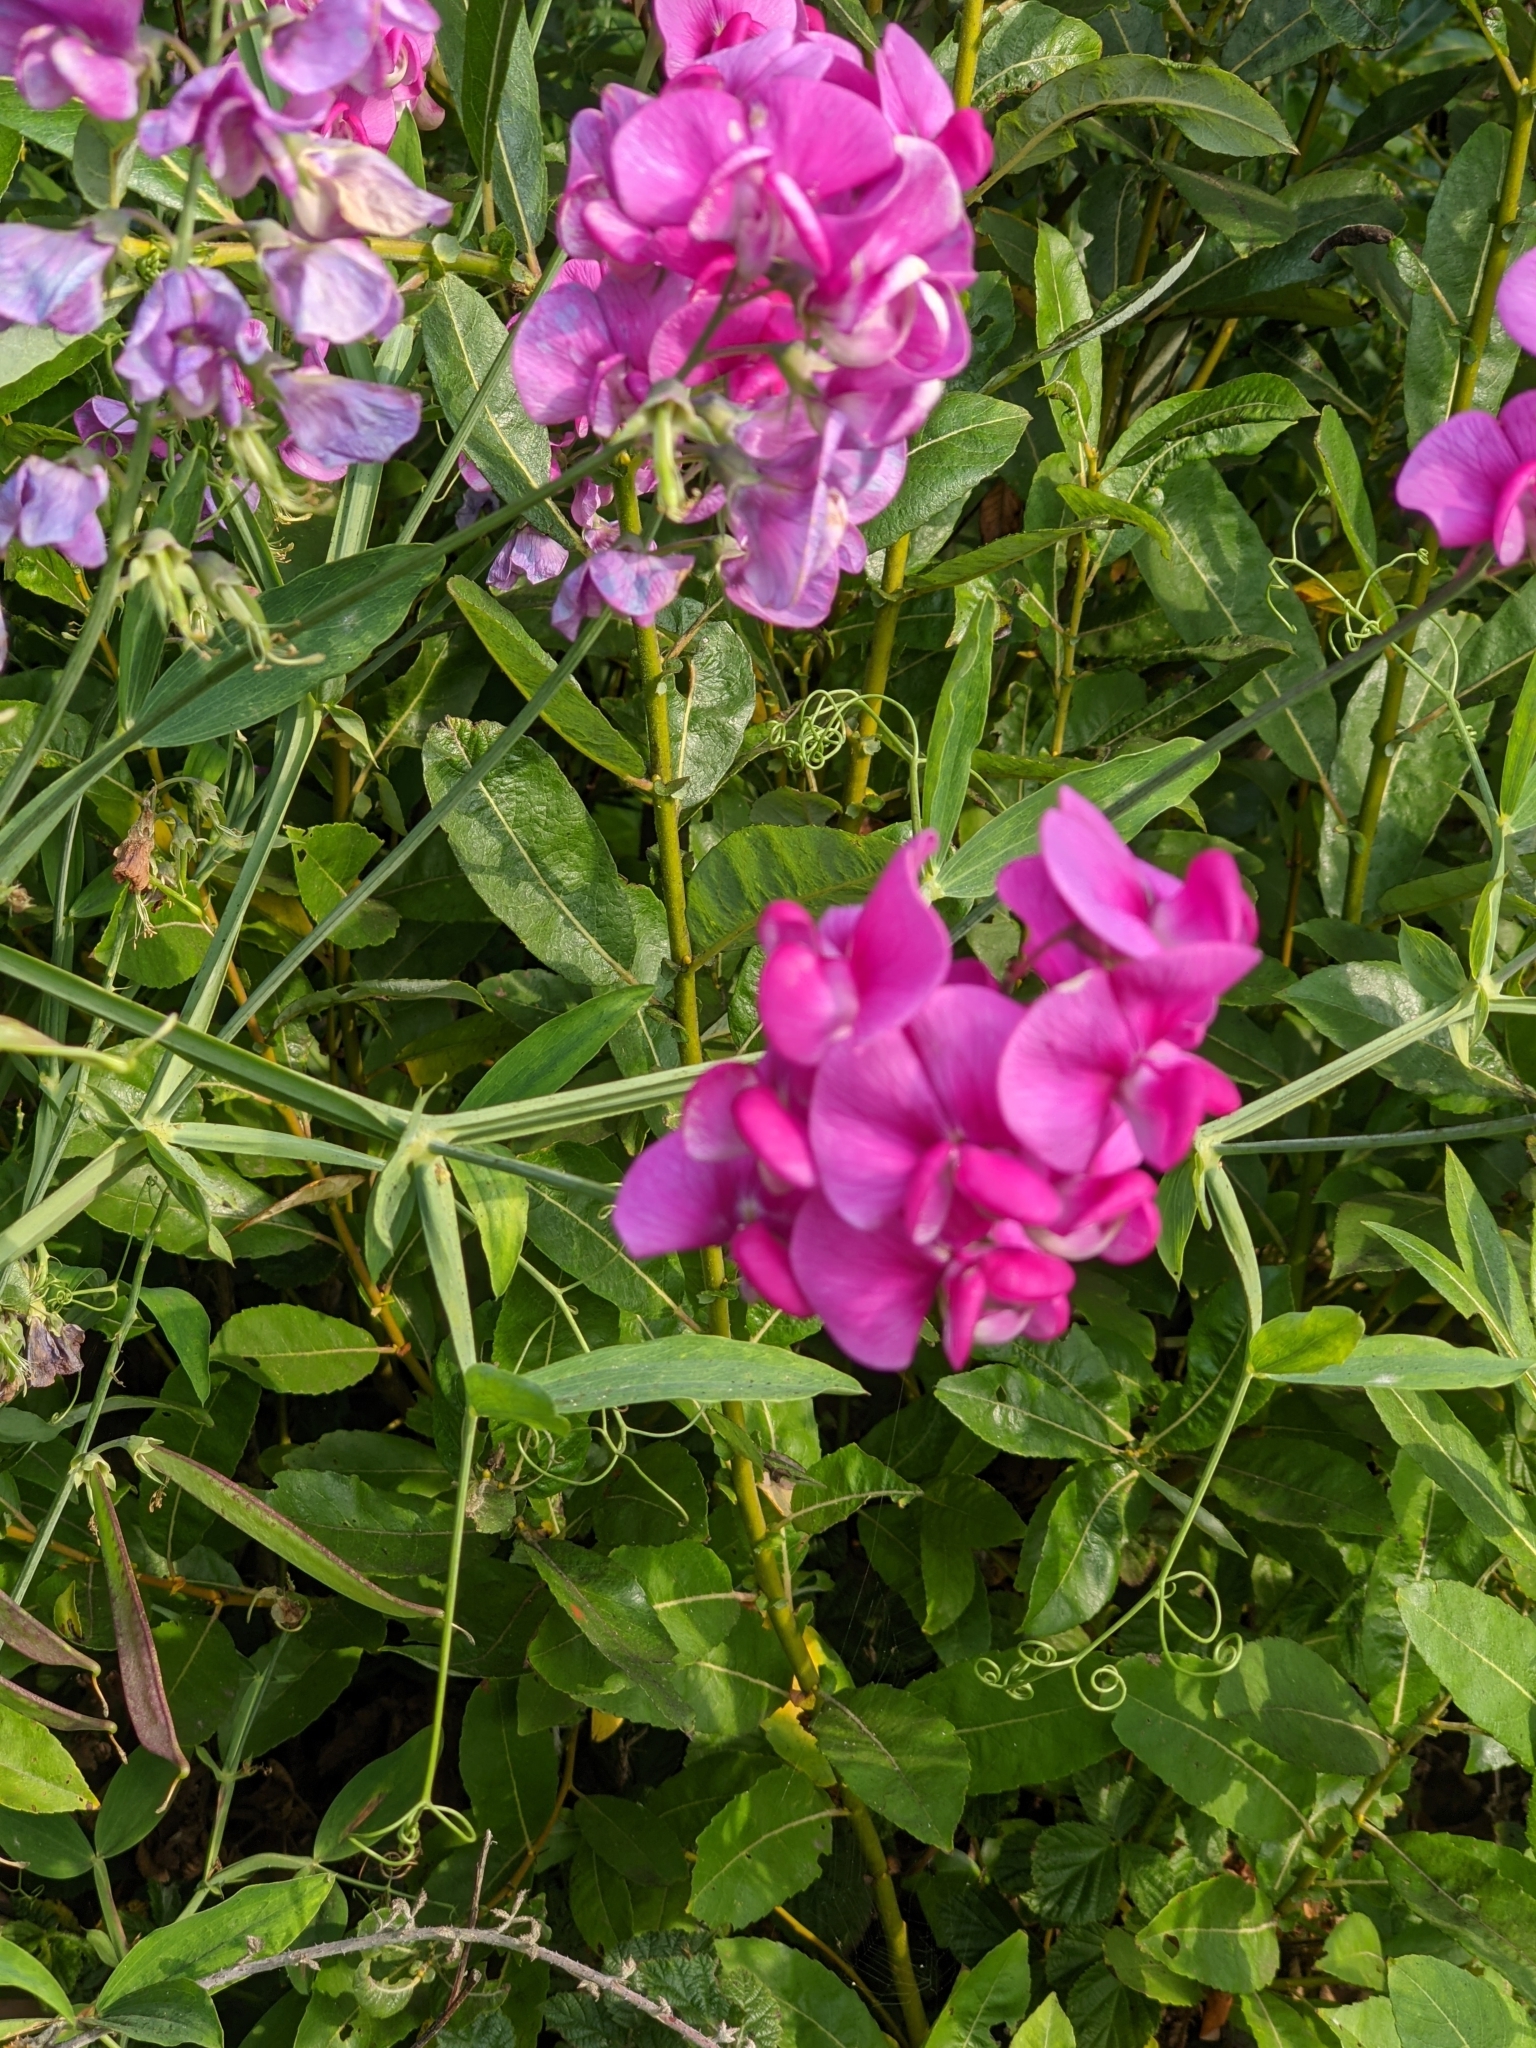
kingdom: Plantae
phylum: Tracheophyta
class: Magnoliopsida
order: Fabales
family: Fabaceae
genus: Lathyrus
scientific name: Lathyrus latifolius
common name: Perennial pea
